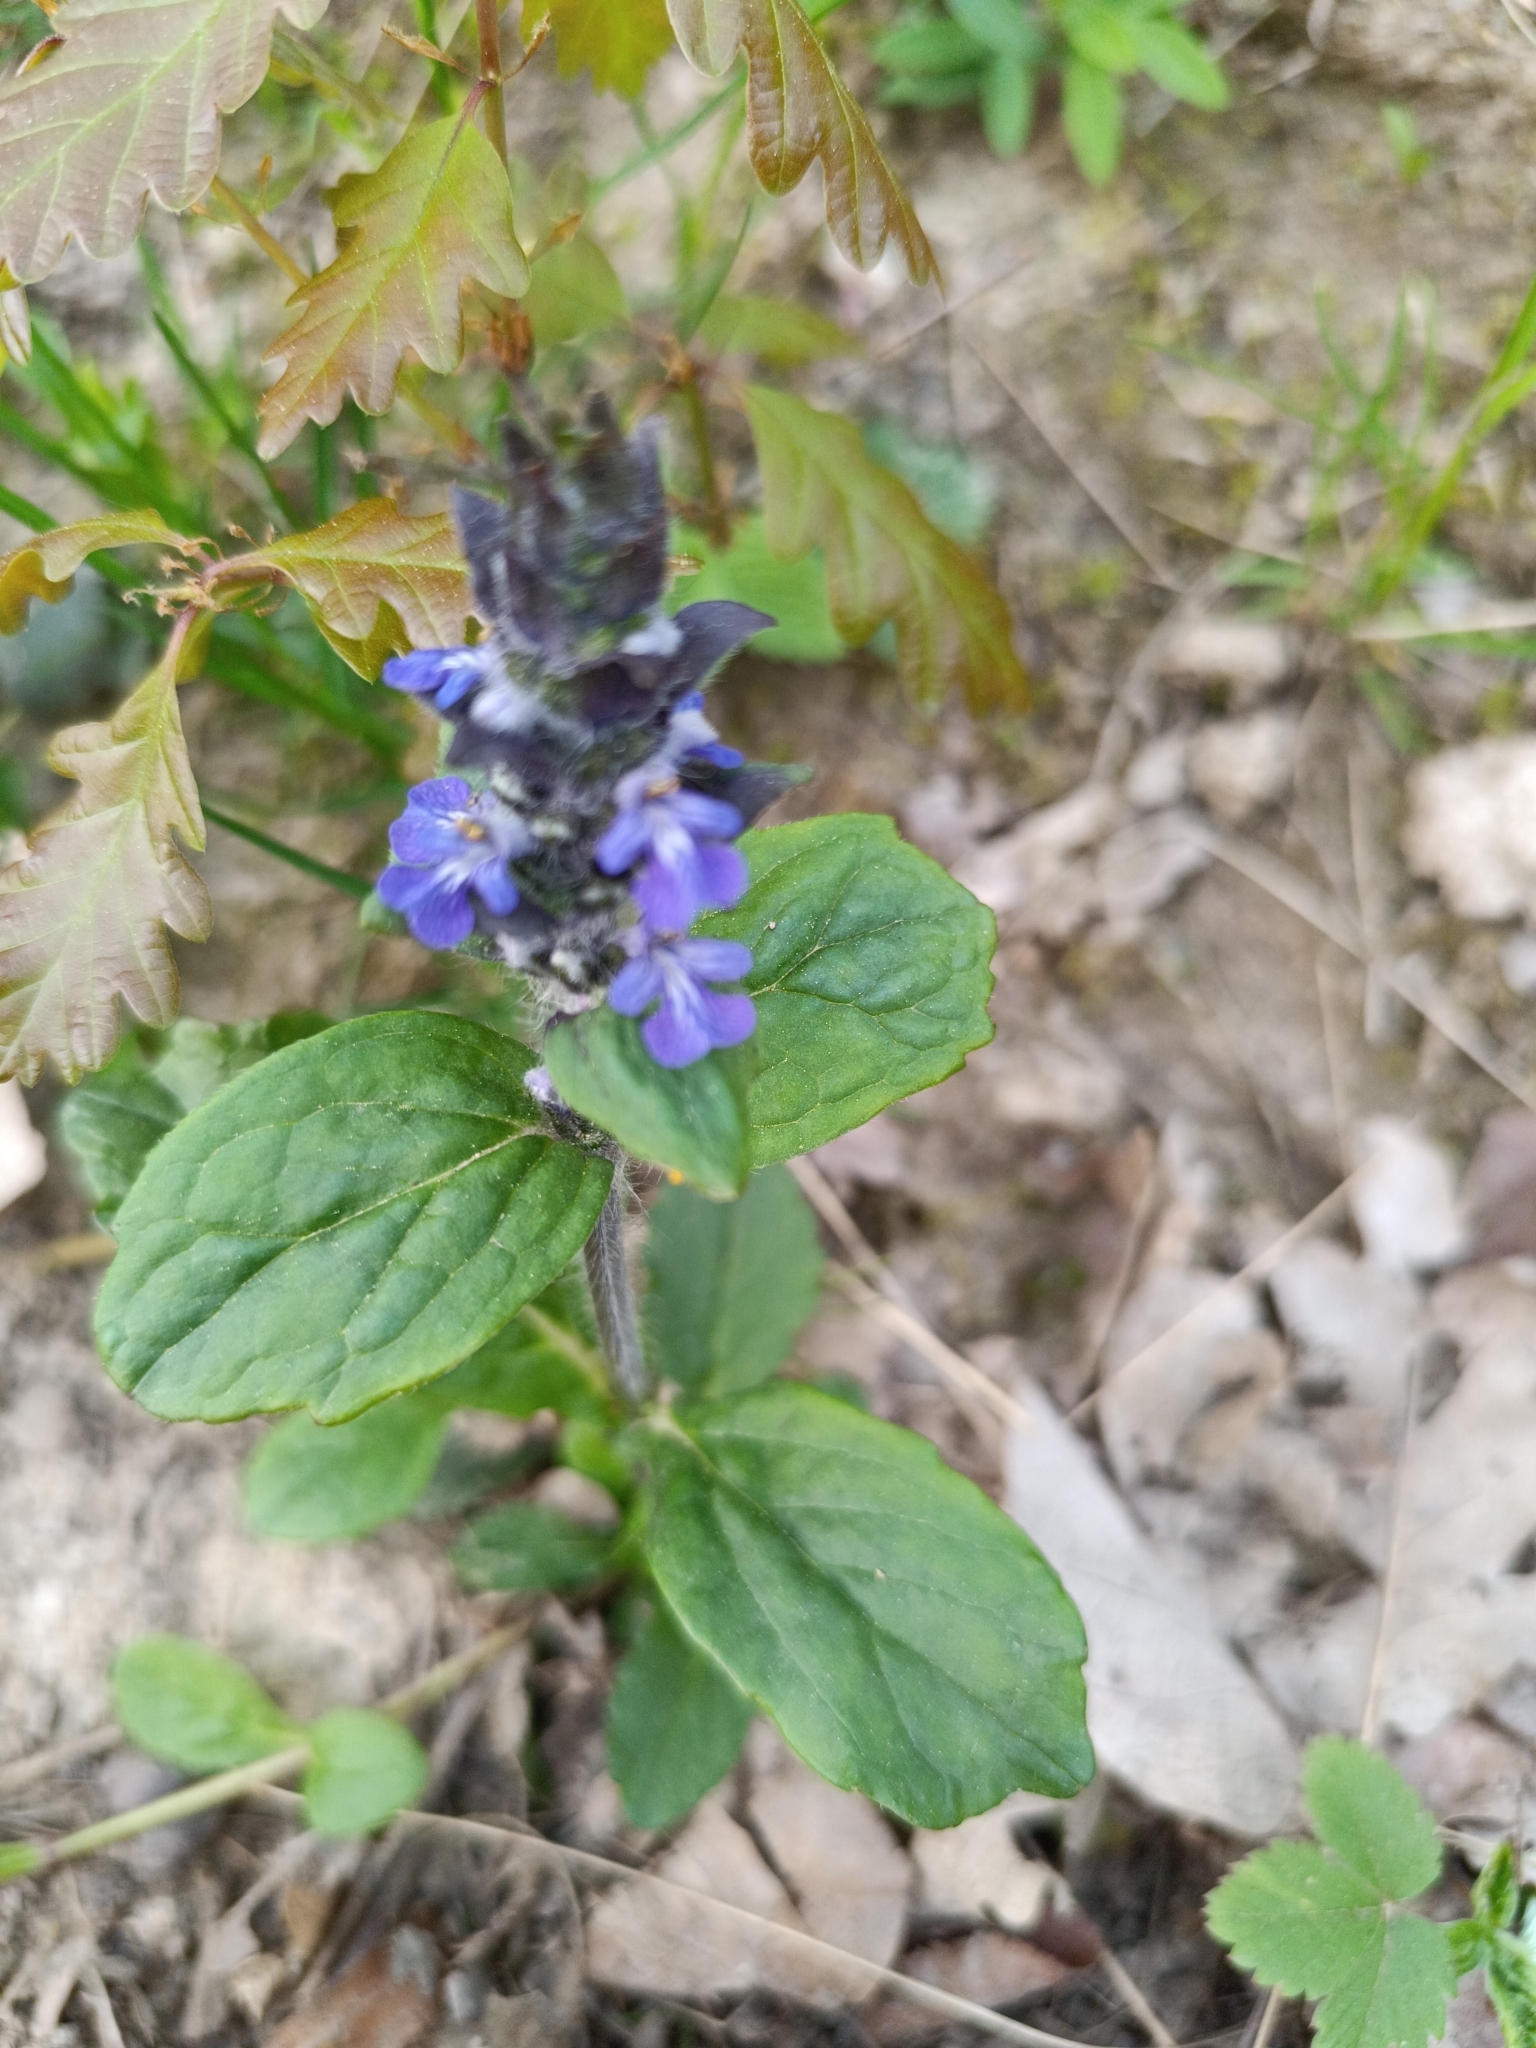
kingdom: Plantae
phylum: Tracheophyta
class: Magnoliopsida
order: Lamiales
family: Lamiaceae
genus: Ajuga
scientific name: Ajuga reptans
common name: Bugle
